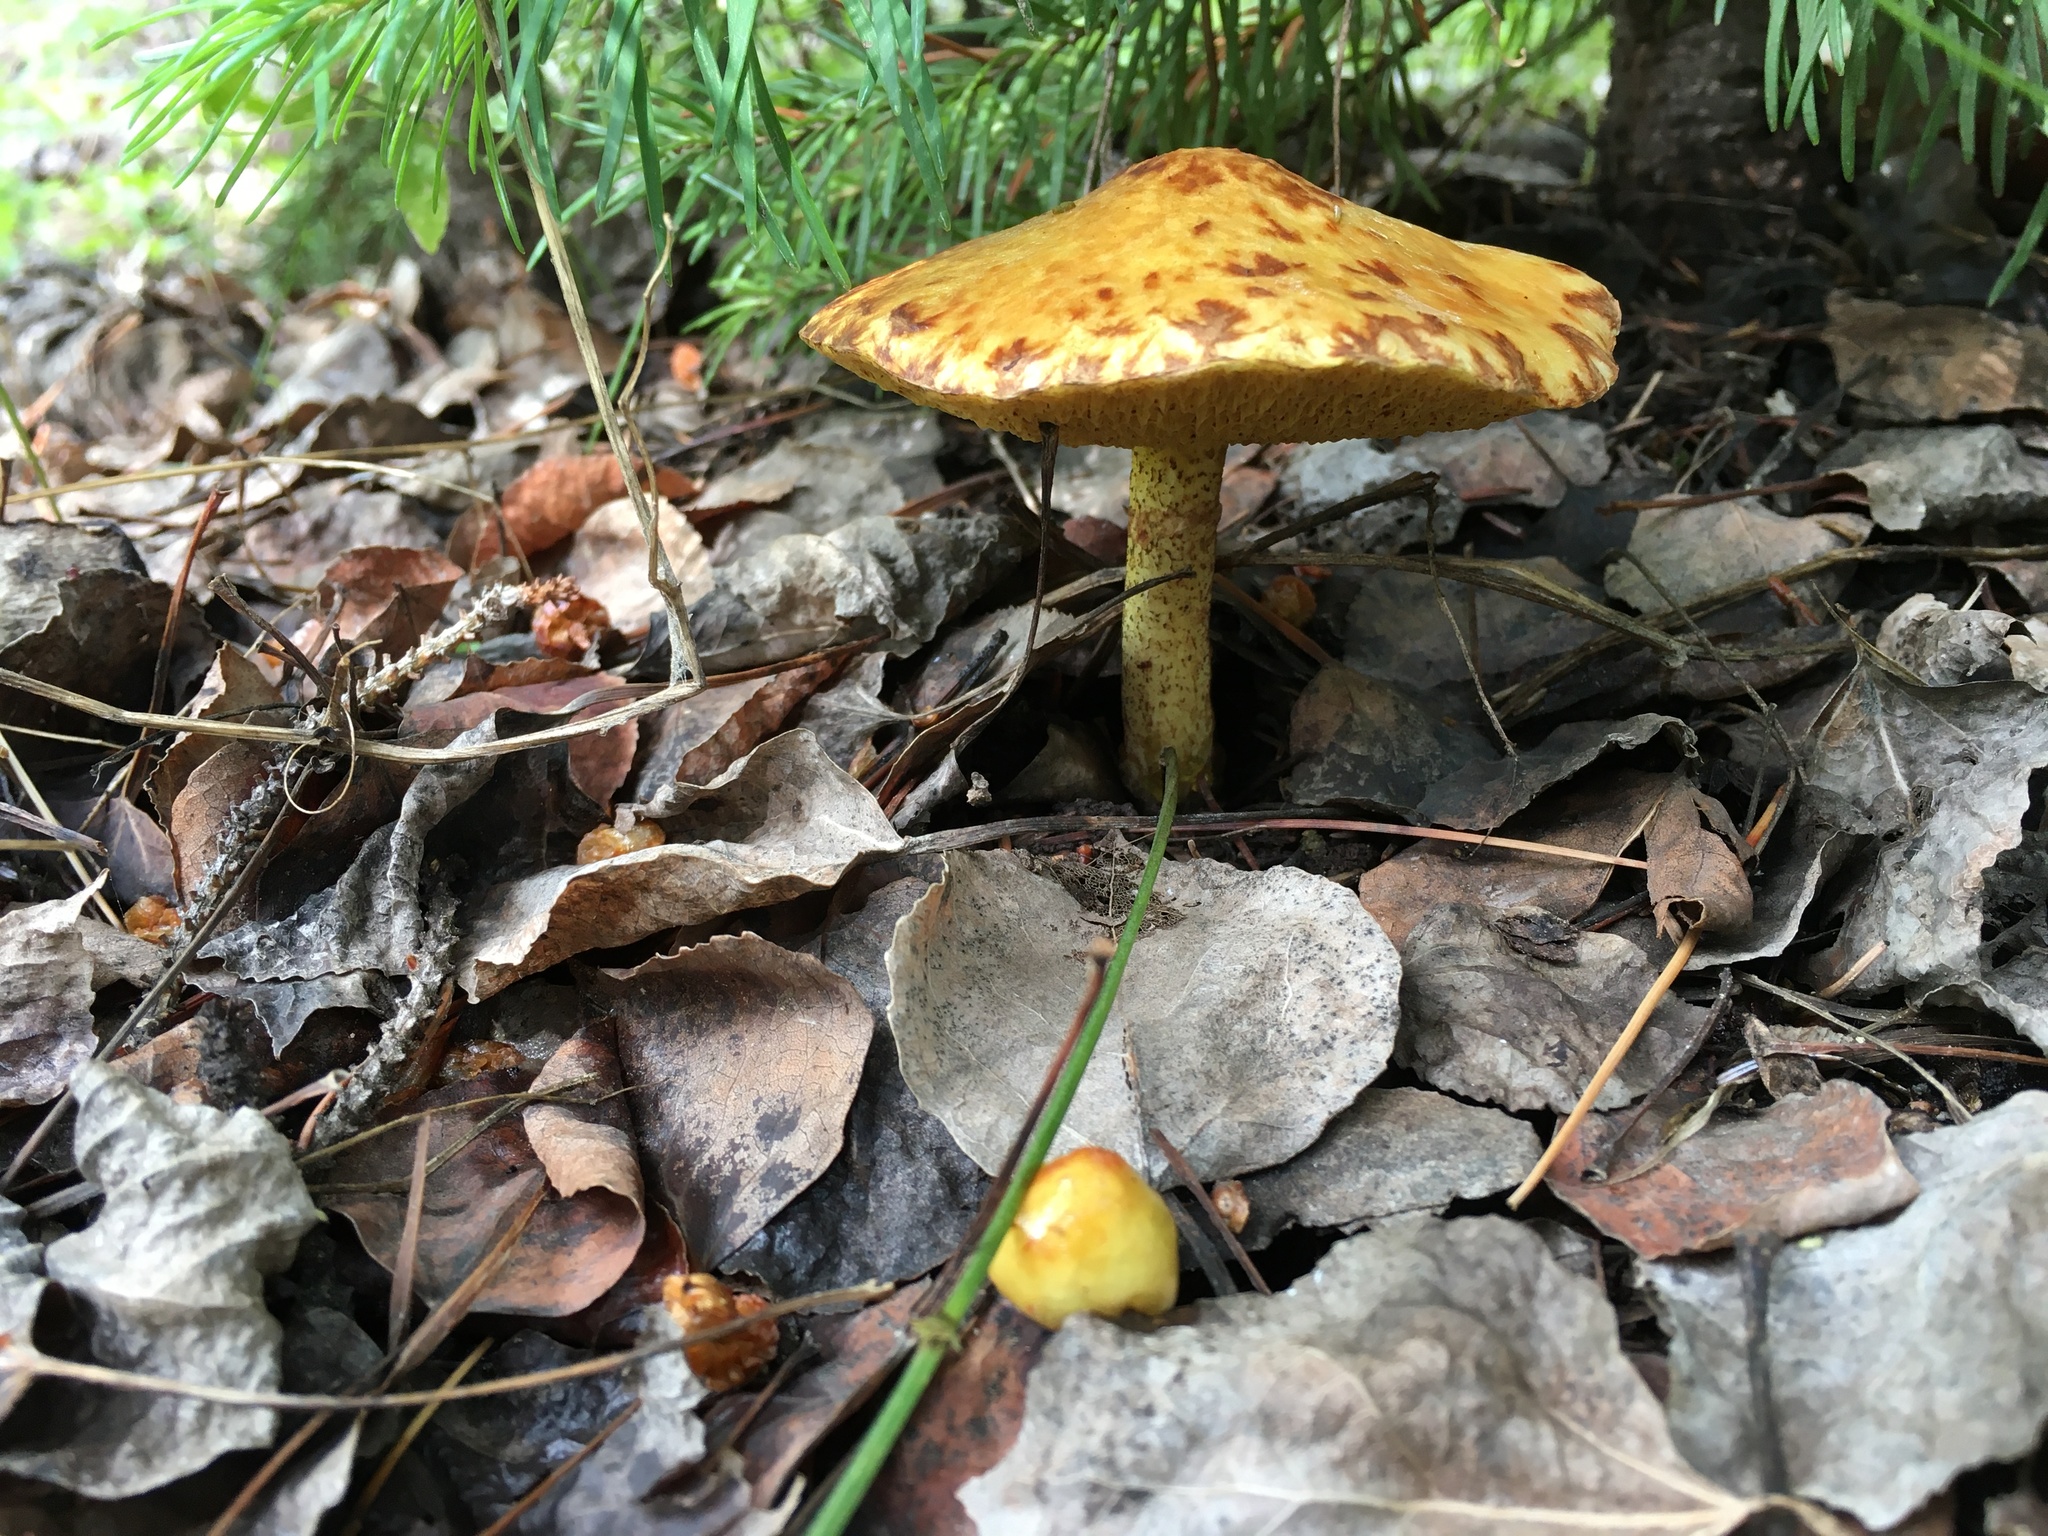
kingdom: Fungi
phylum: Basidiomycota
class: Agaricomycetes
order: Boletales
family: Suillaceae
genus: Suillus
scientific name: Suillus americanus
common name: Chicken fat mushroom
